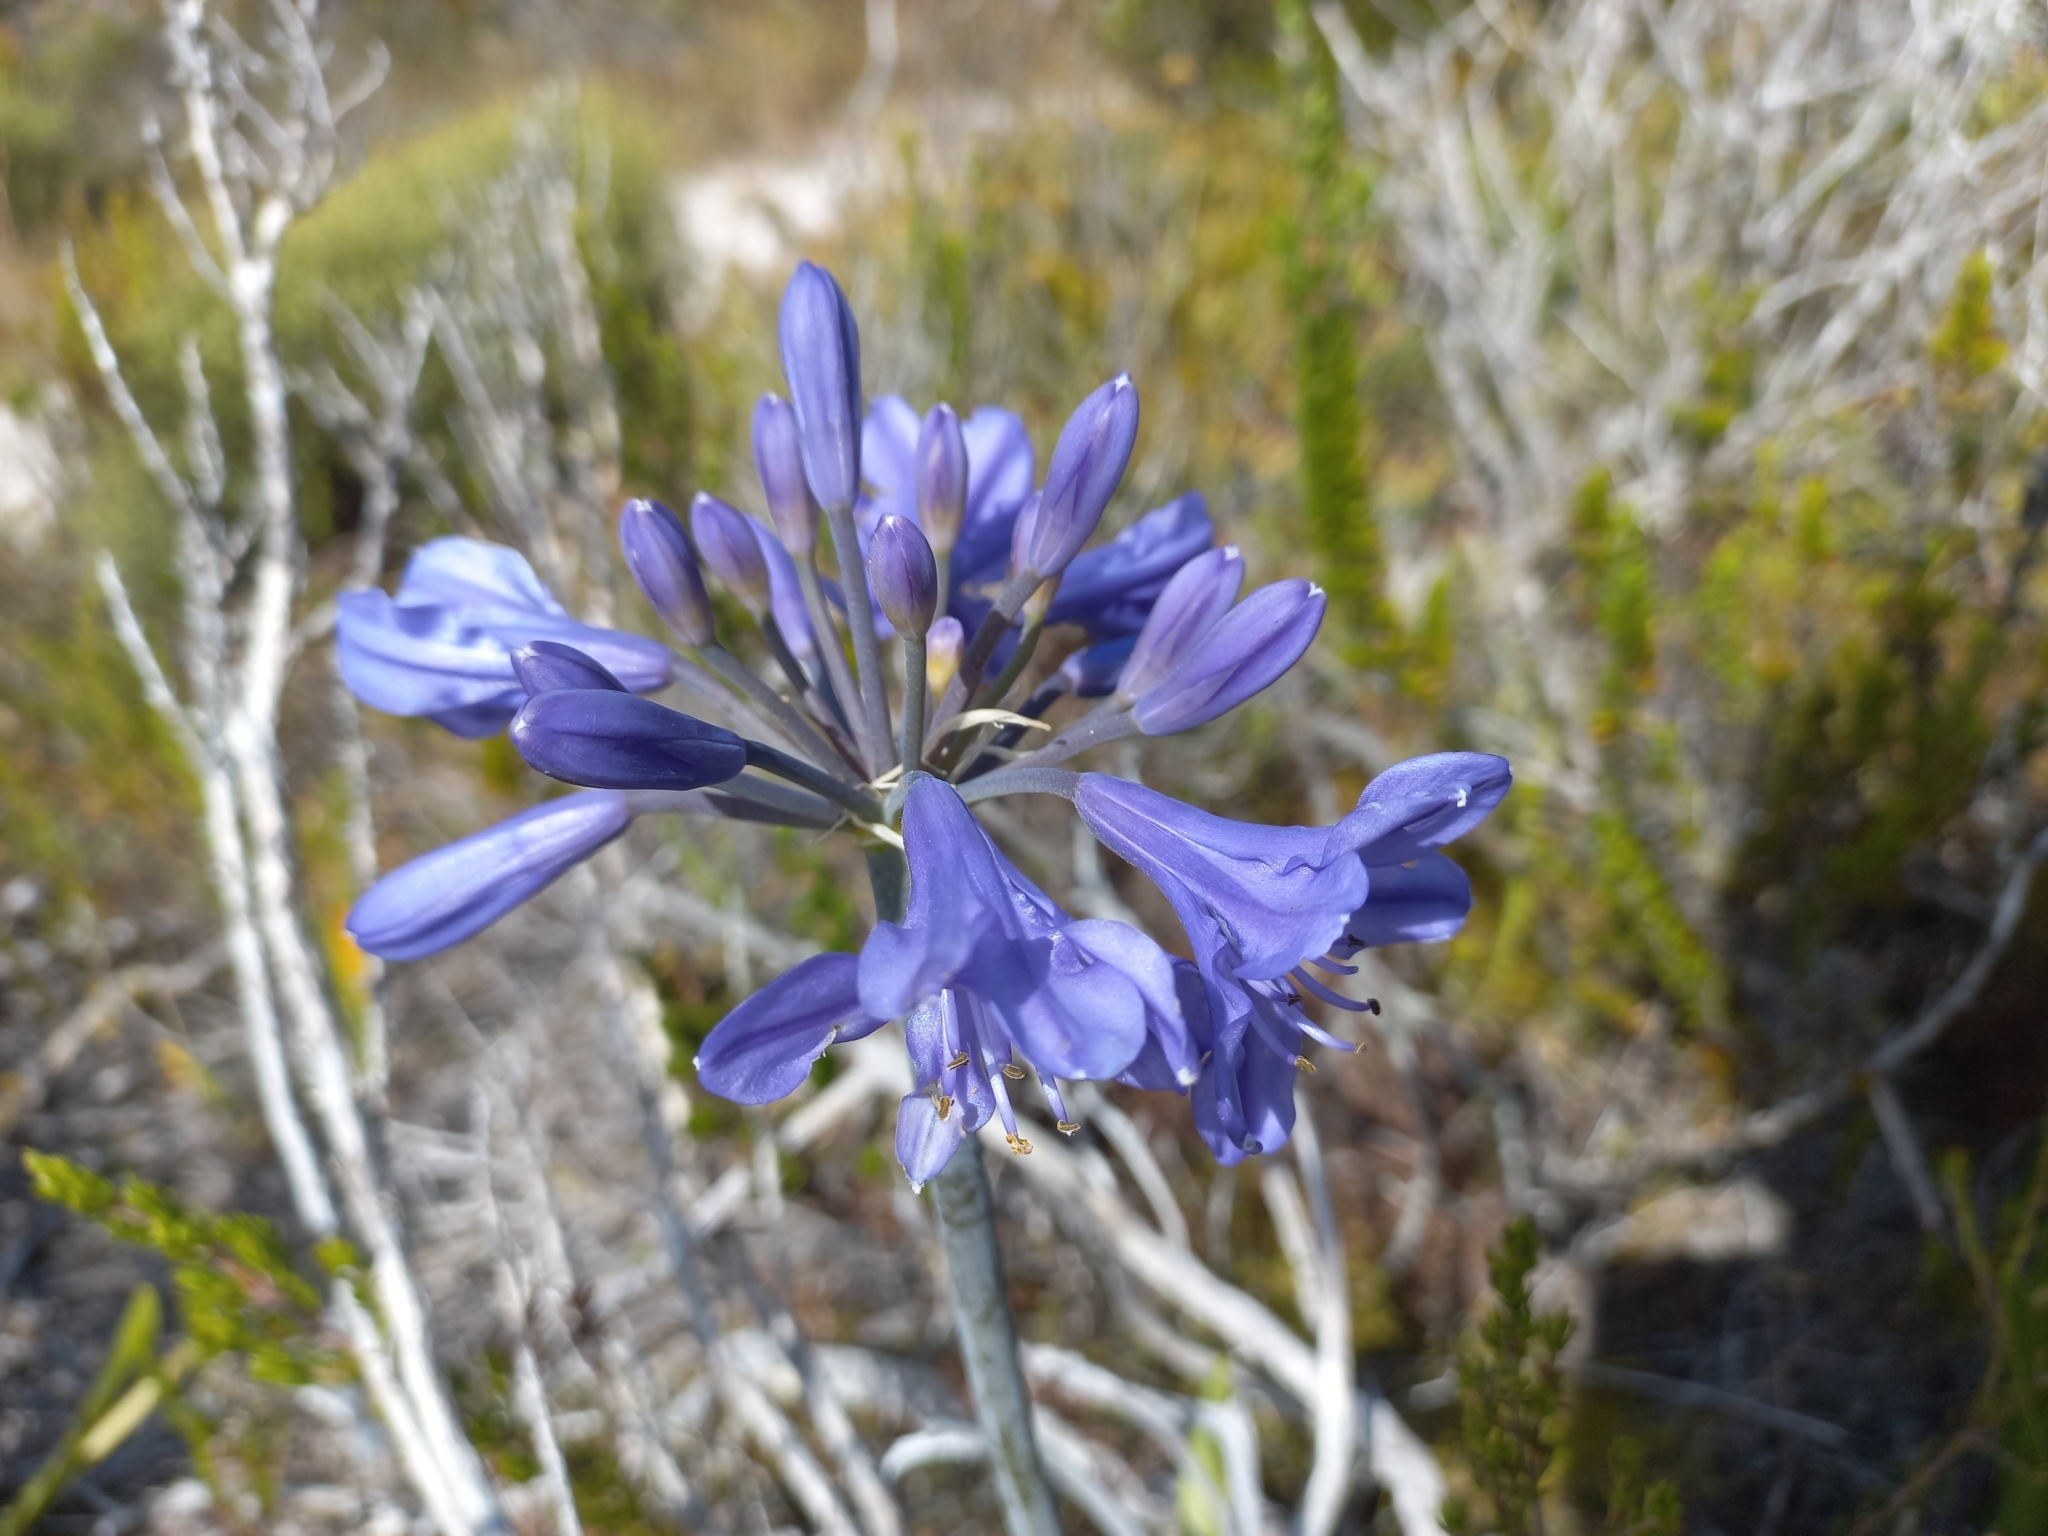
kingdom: Plantae
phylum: Tracheophyta
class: Liliopsida
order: Asparagales
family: Amaryllidaceae
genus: Agapanthus
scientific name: Agapanthus africanus
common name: Lily-of-the-nile
